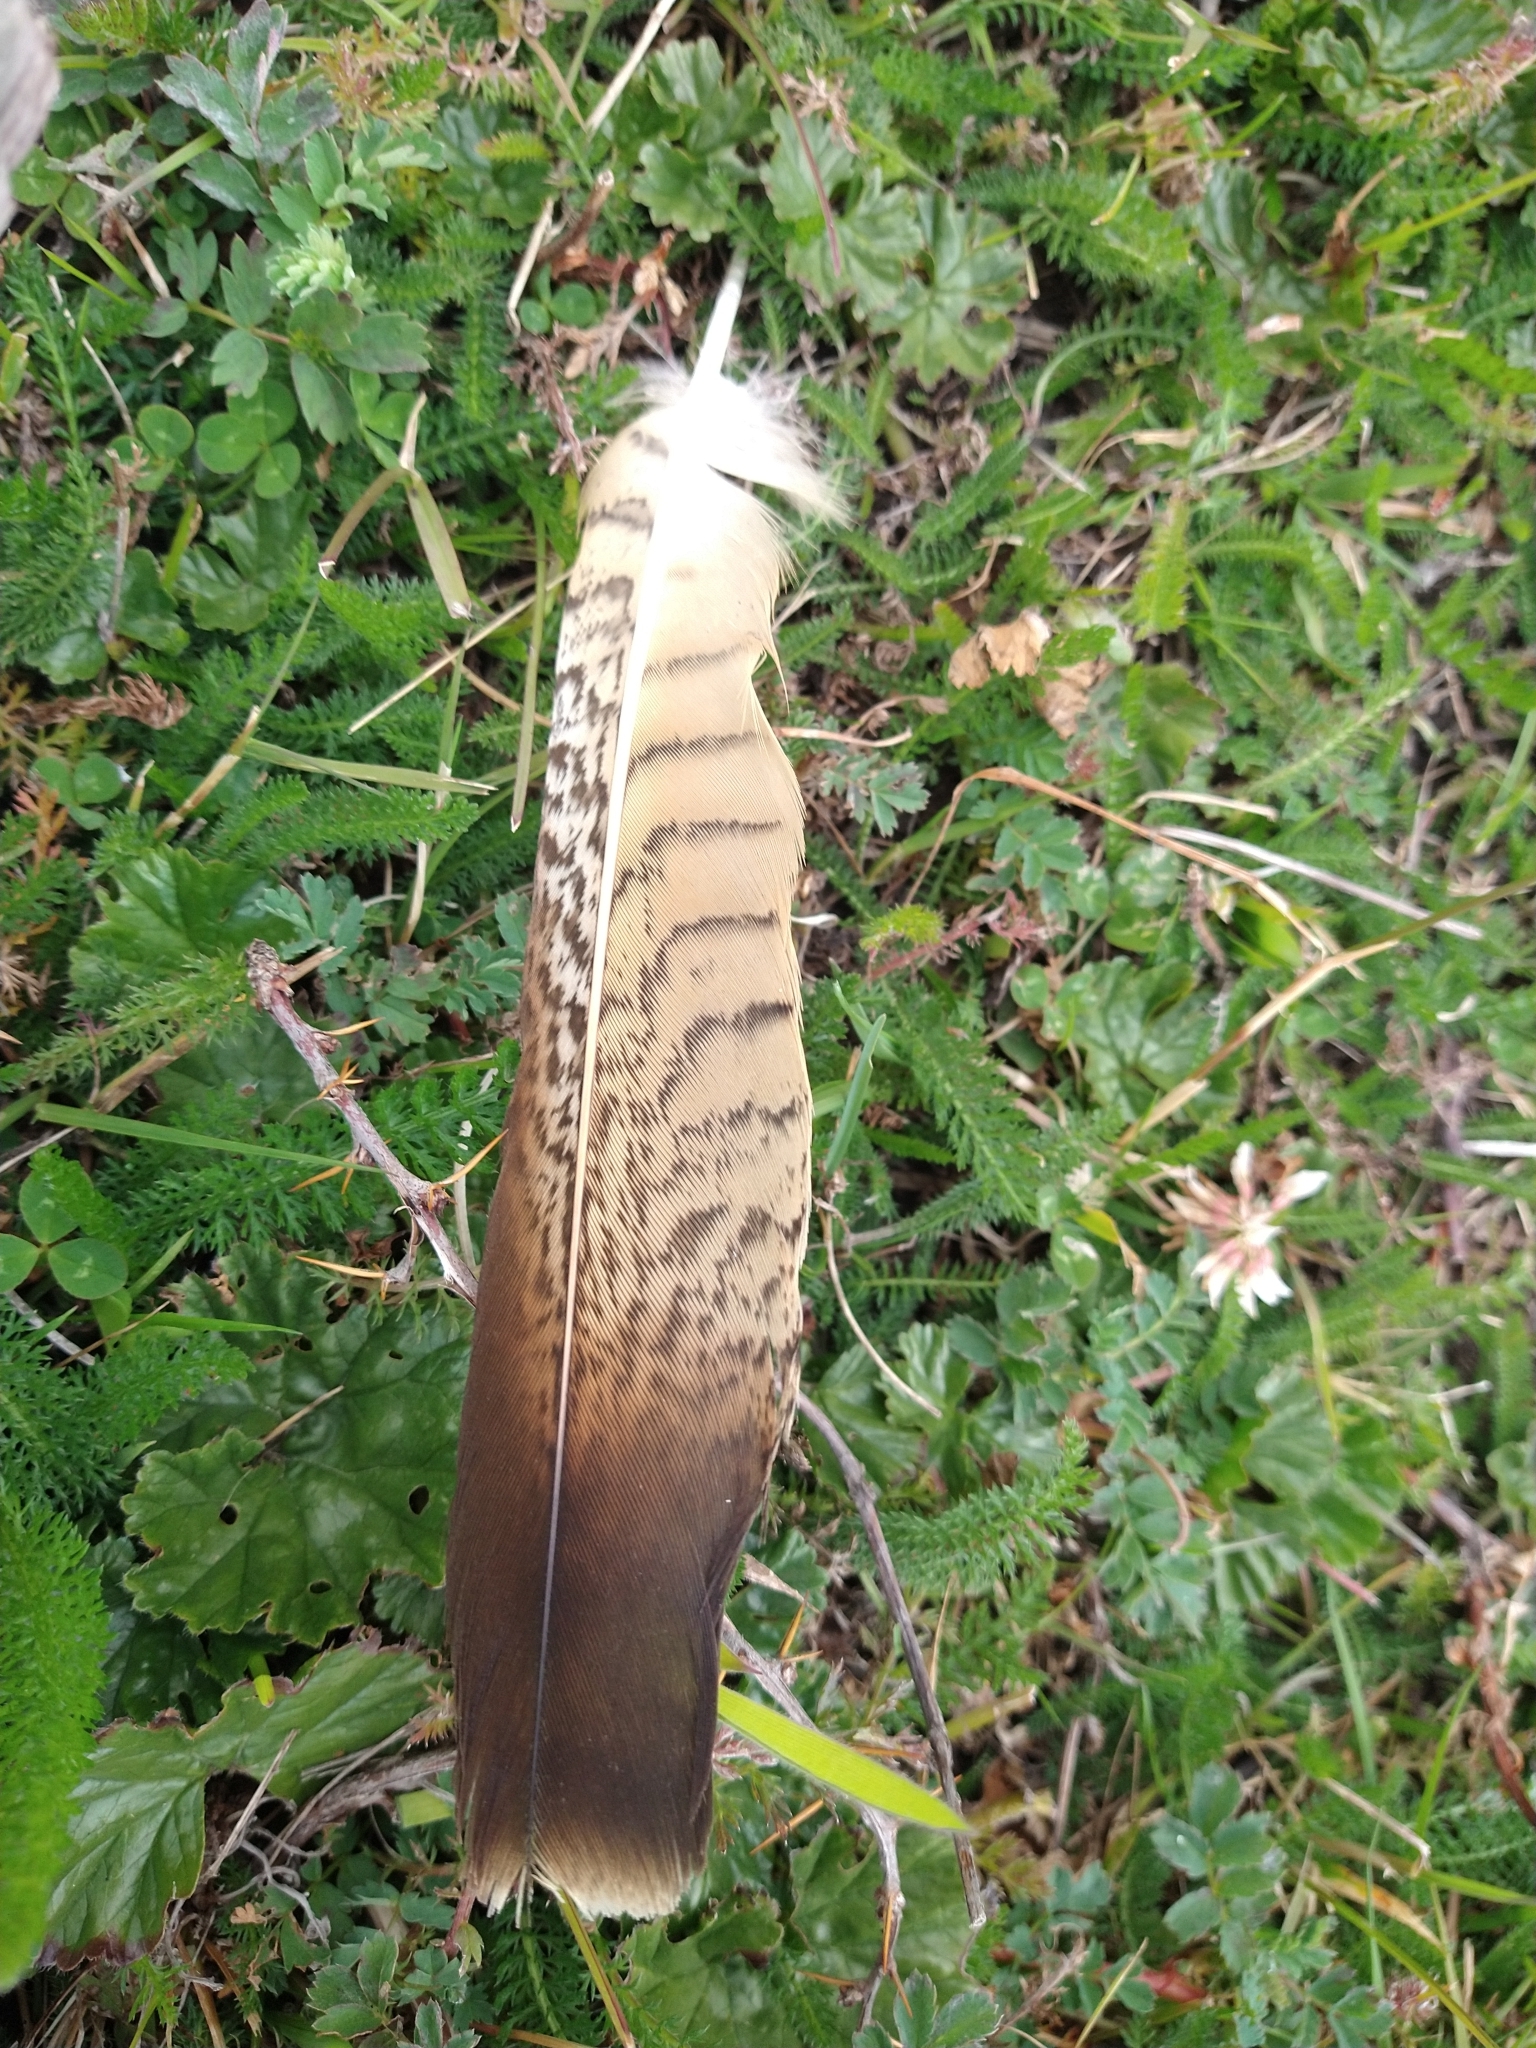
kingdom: Animalia
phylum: Chordata
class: Aves
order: Falconiformes
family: Falconidae
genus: Daptrius
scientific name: Daptrius
